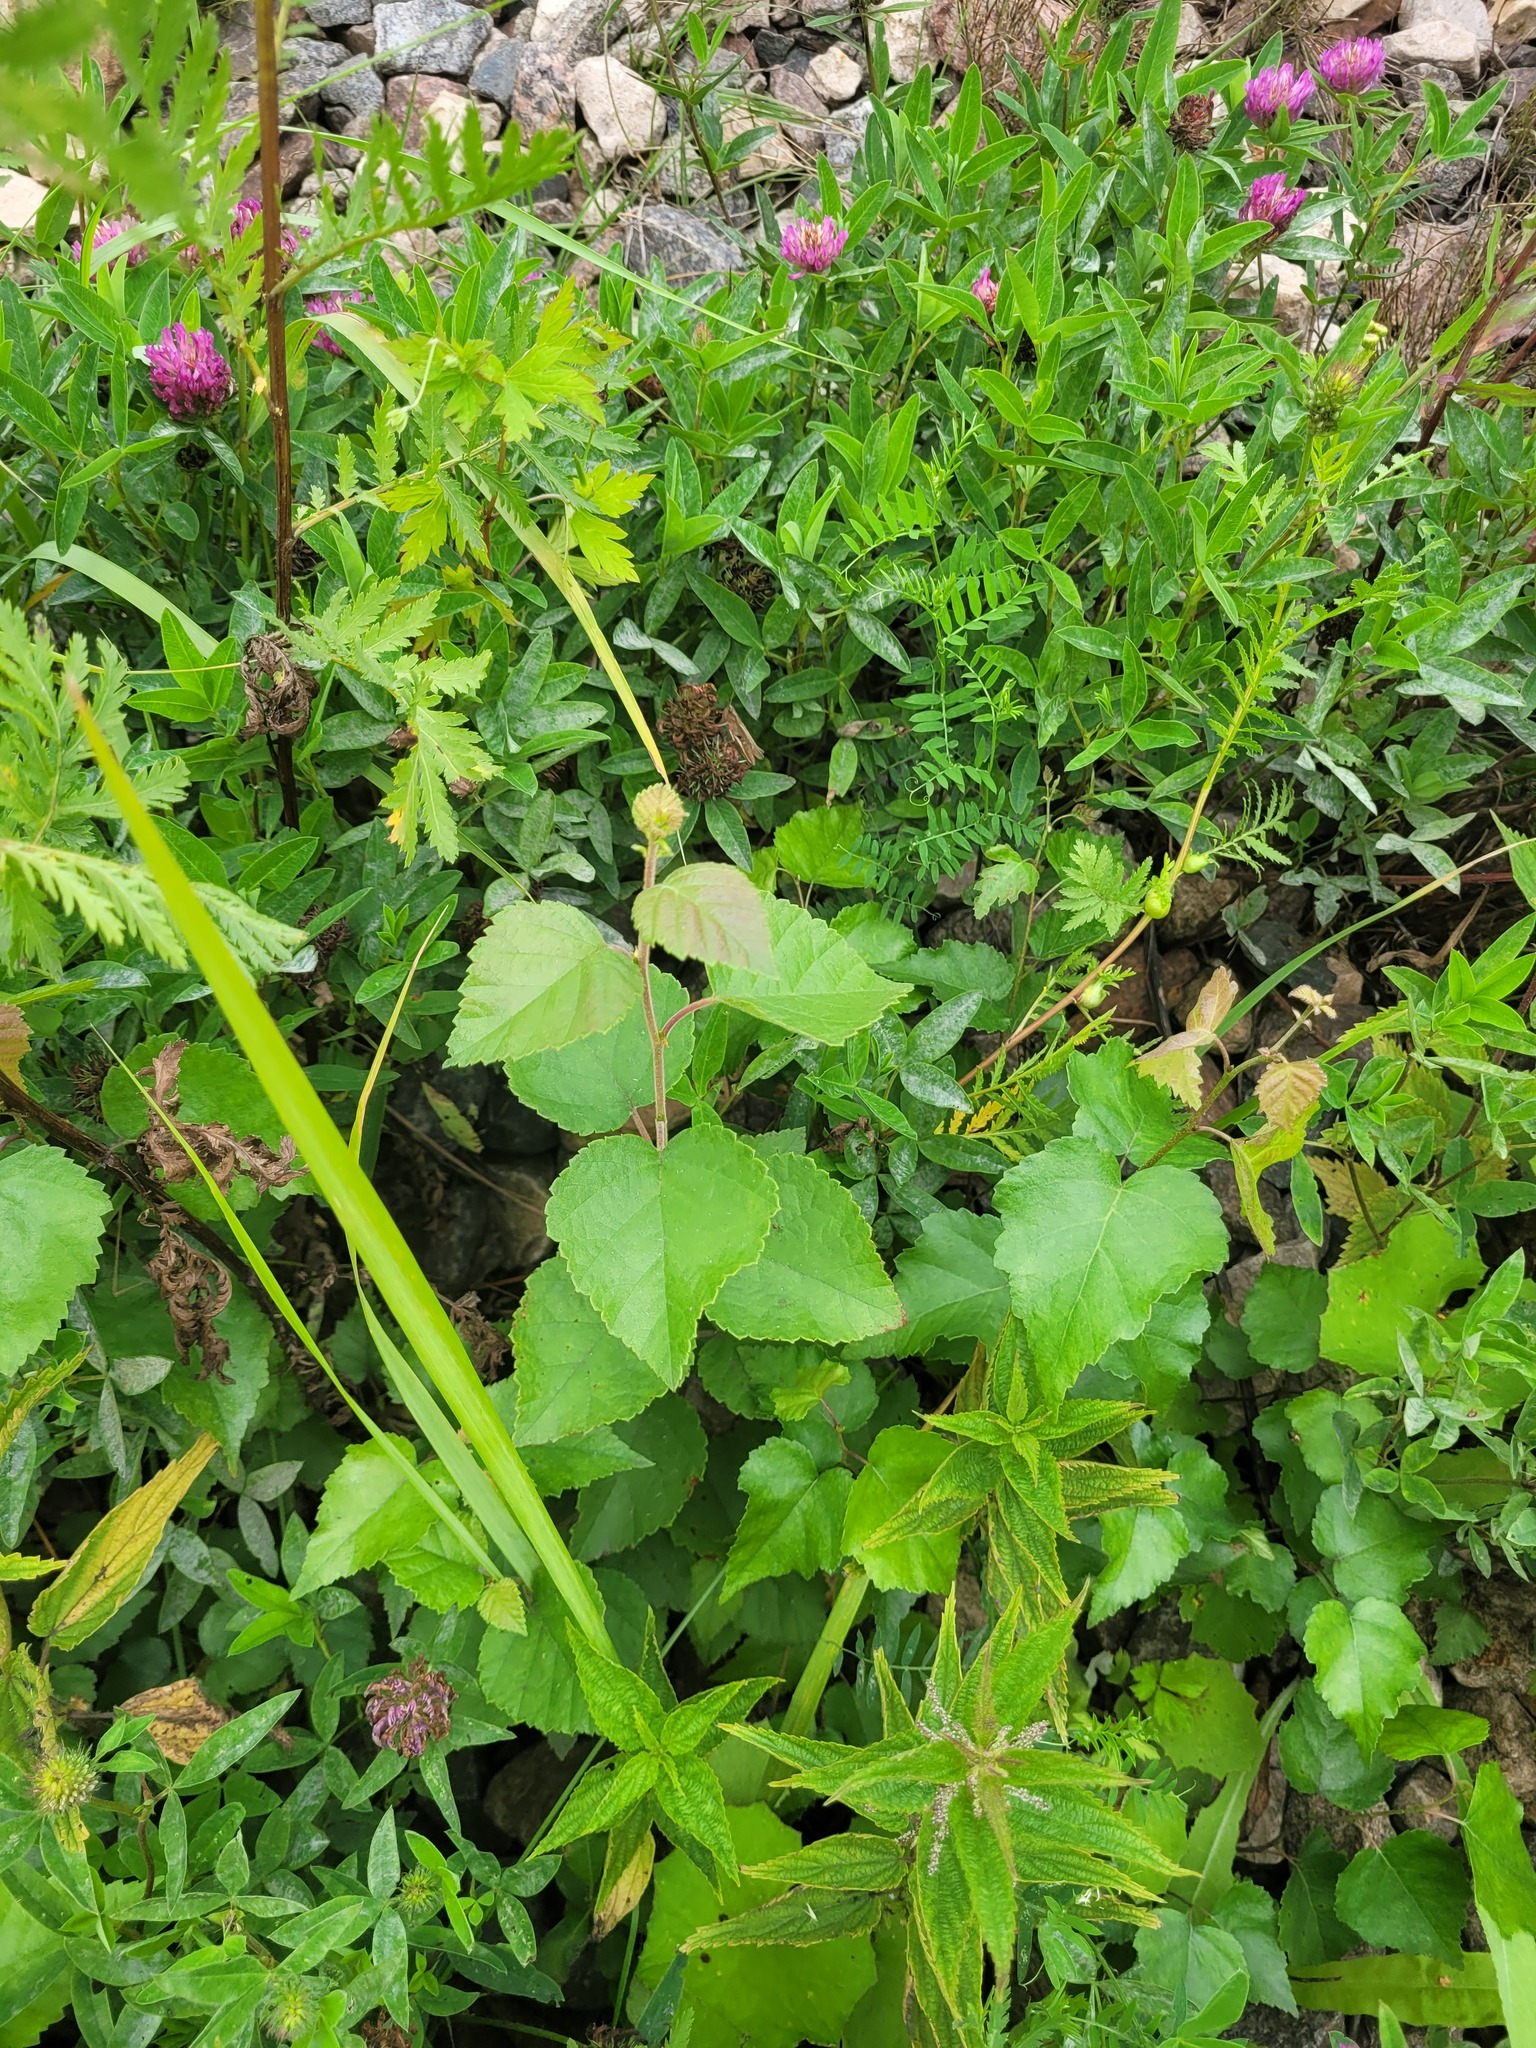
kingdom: Plantae
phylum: Tracheophyta
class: Magnoliopsida
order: Fagales
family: Betulaceae
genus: Betula
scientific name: Betula pubescens
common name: Downy birch
